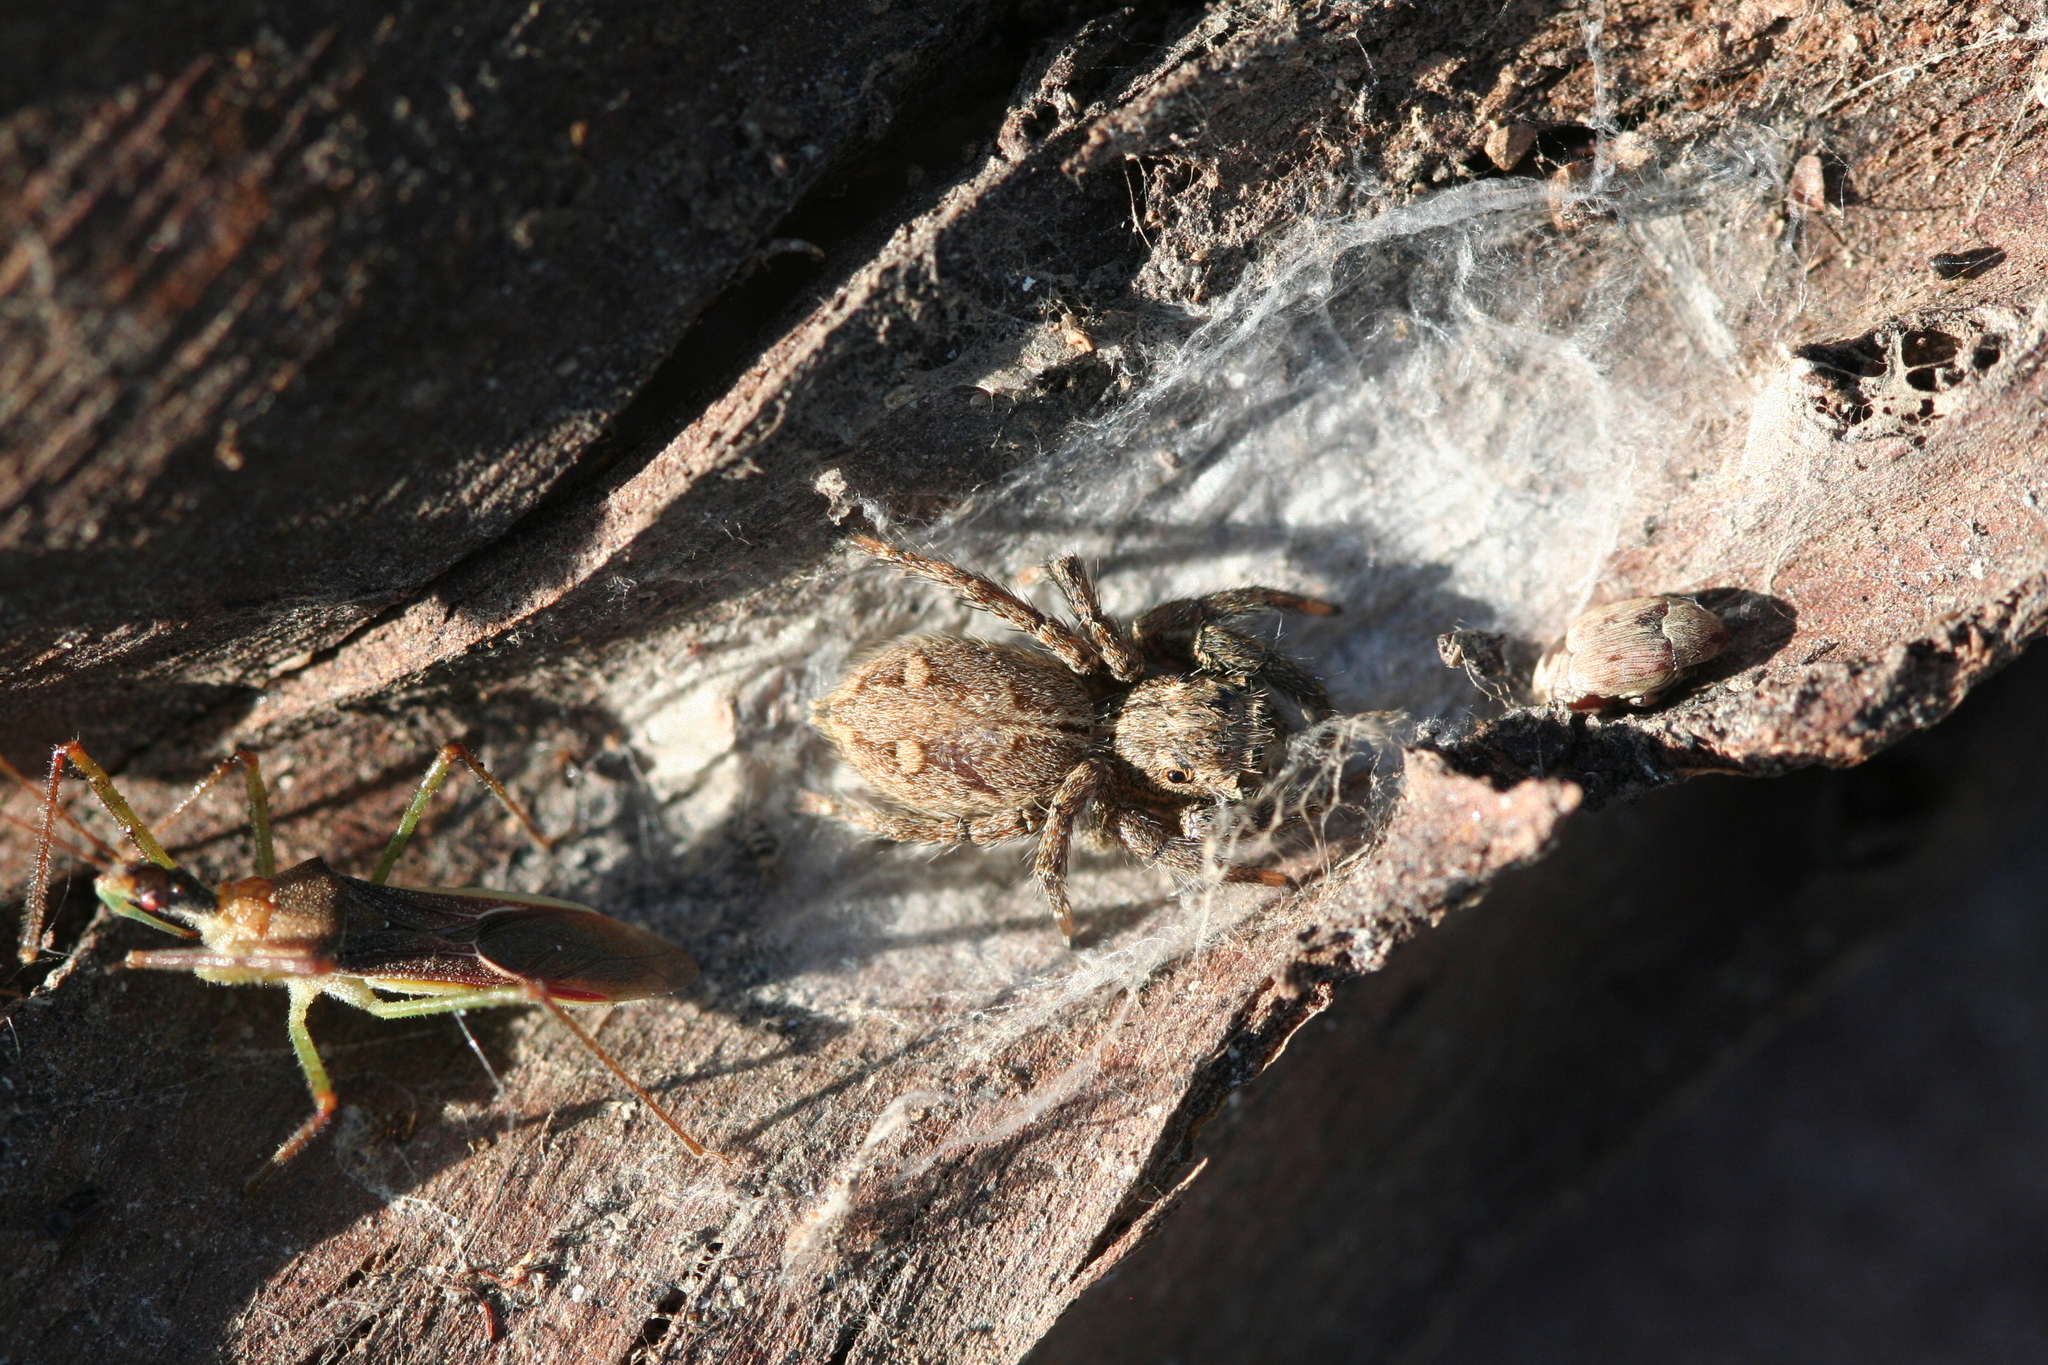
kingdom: Animalia
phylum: Arthropoda
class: Arachnida
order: Araneae
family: Salticidae
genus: Plexippus
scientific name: Plexippus paykulli
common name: Pantropical jumper
